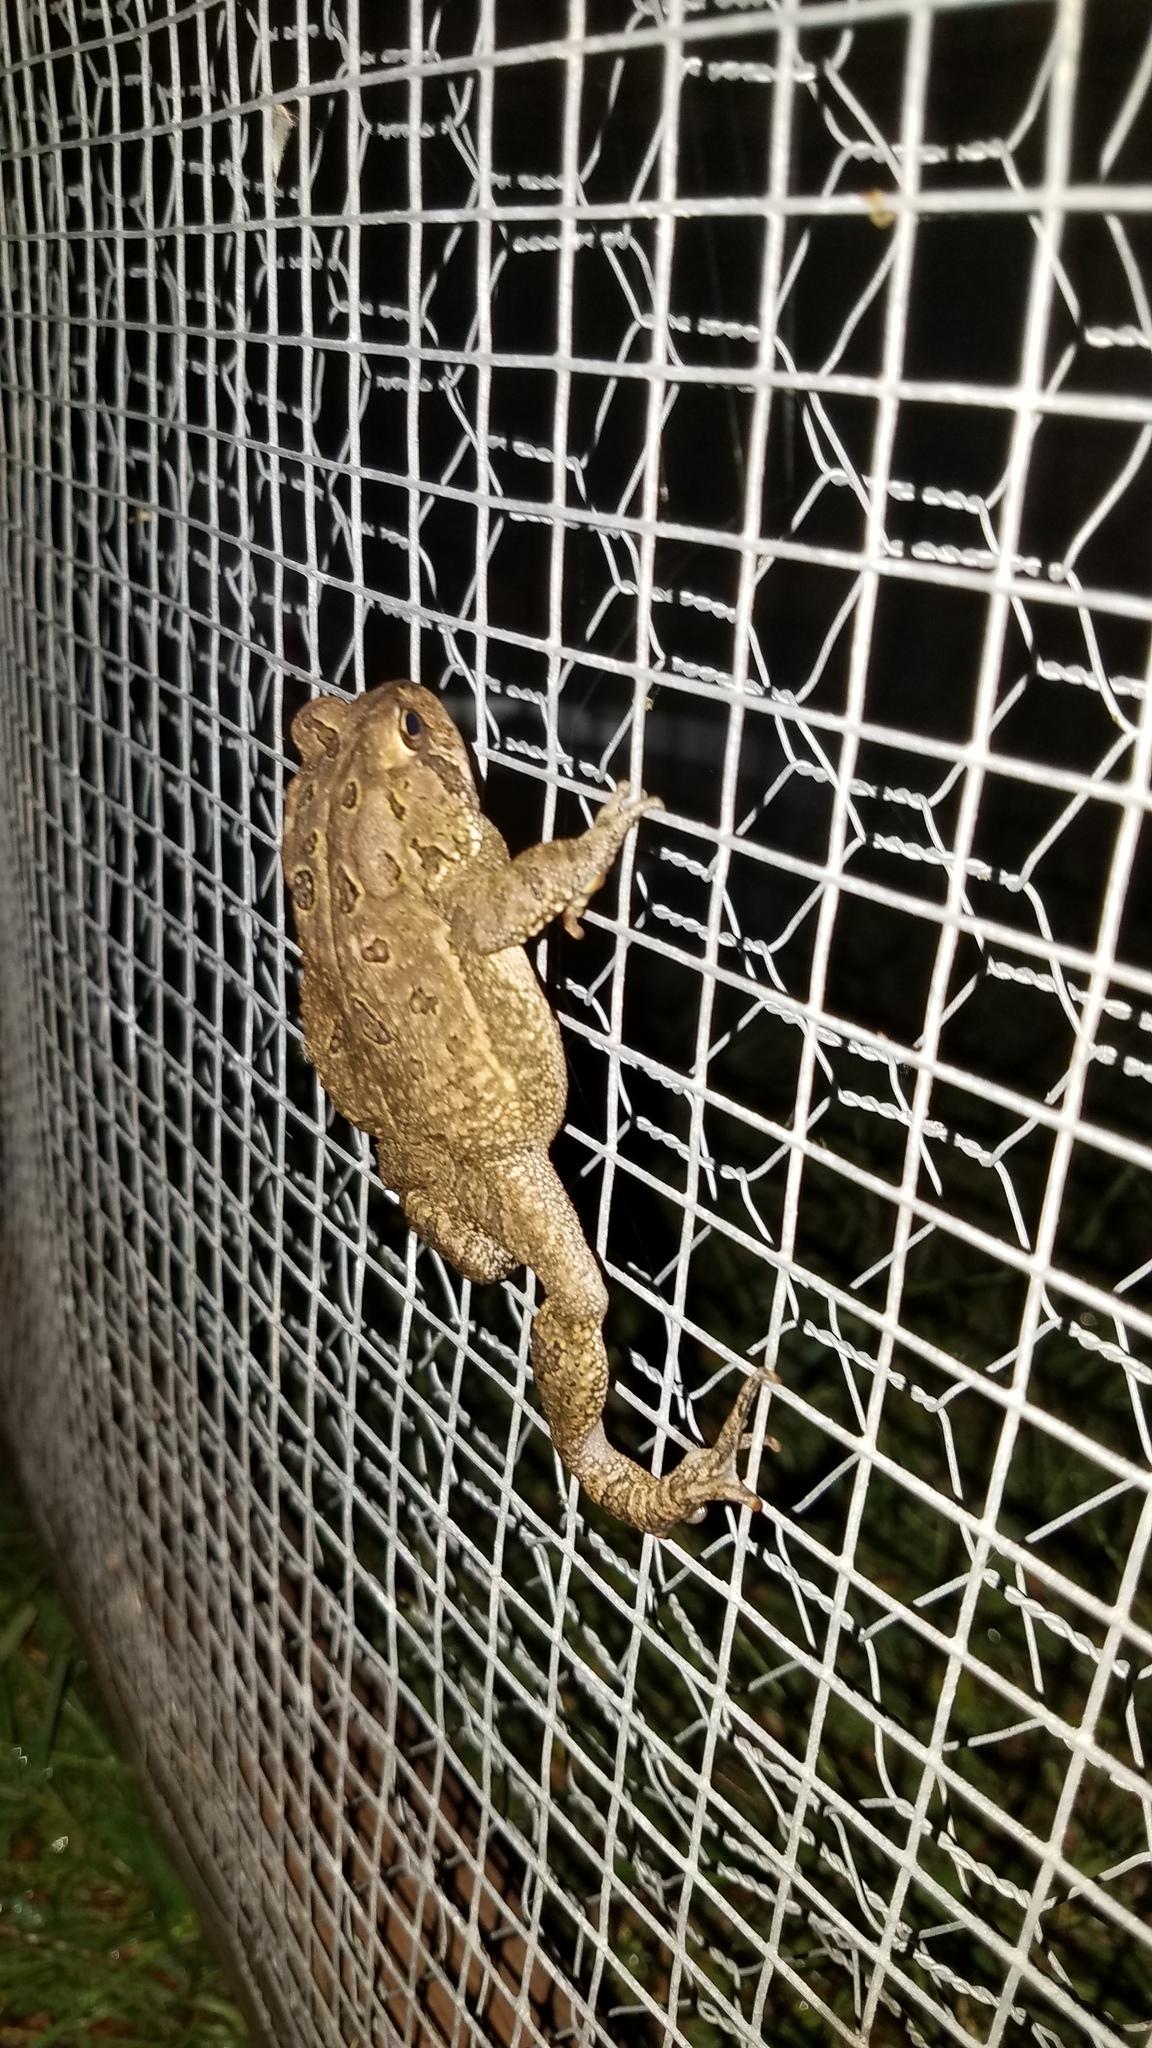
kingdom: Animalia
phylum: Chordata
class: Amphibia
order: Anura
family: Bufonidae
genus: Anaxyrus
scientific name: Anaxyrus americanus
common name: American toad
